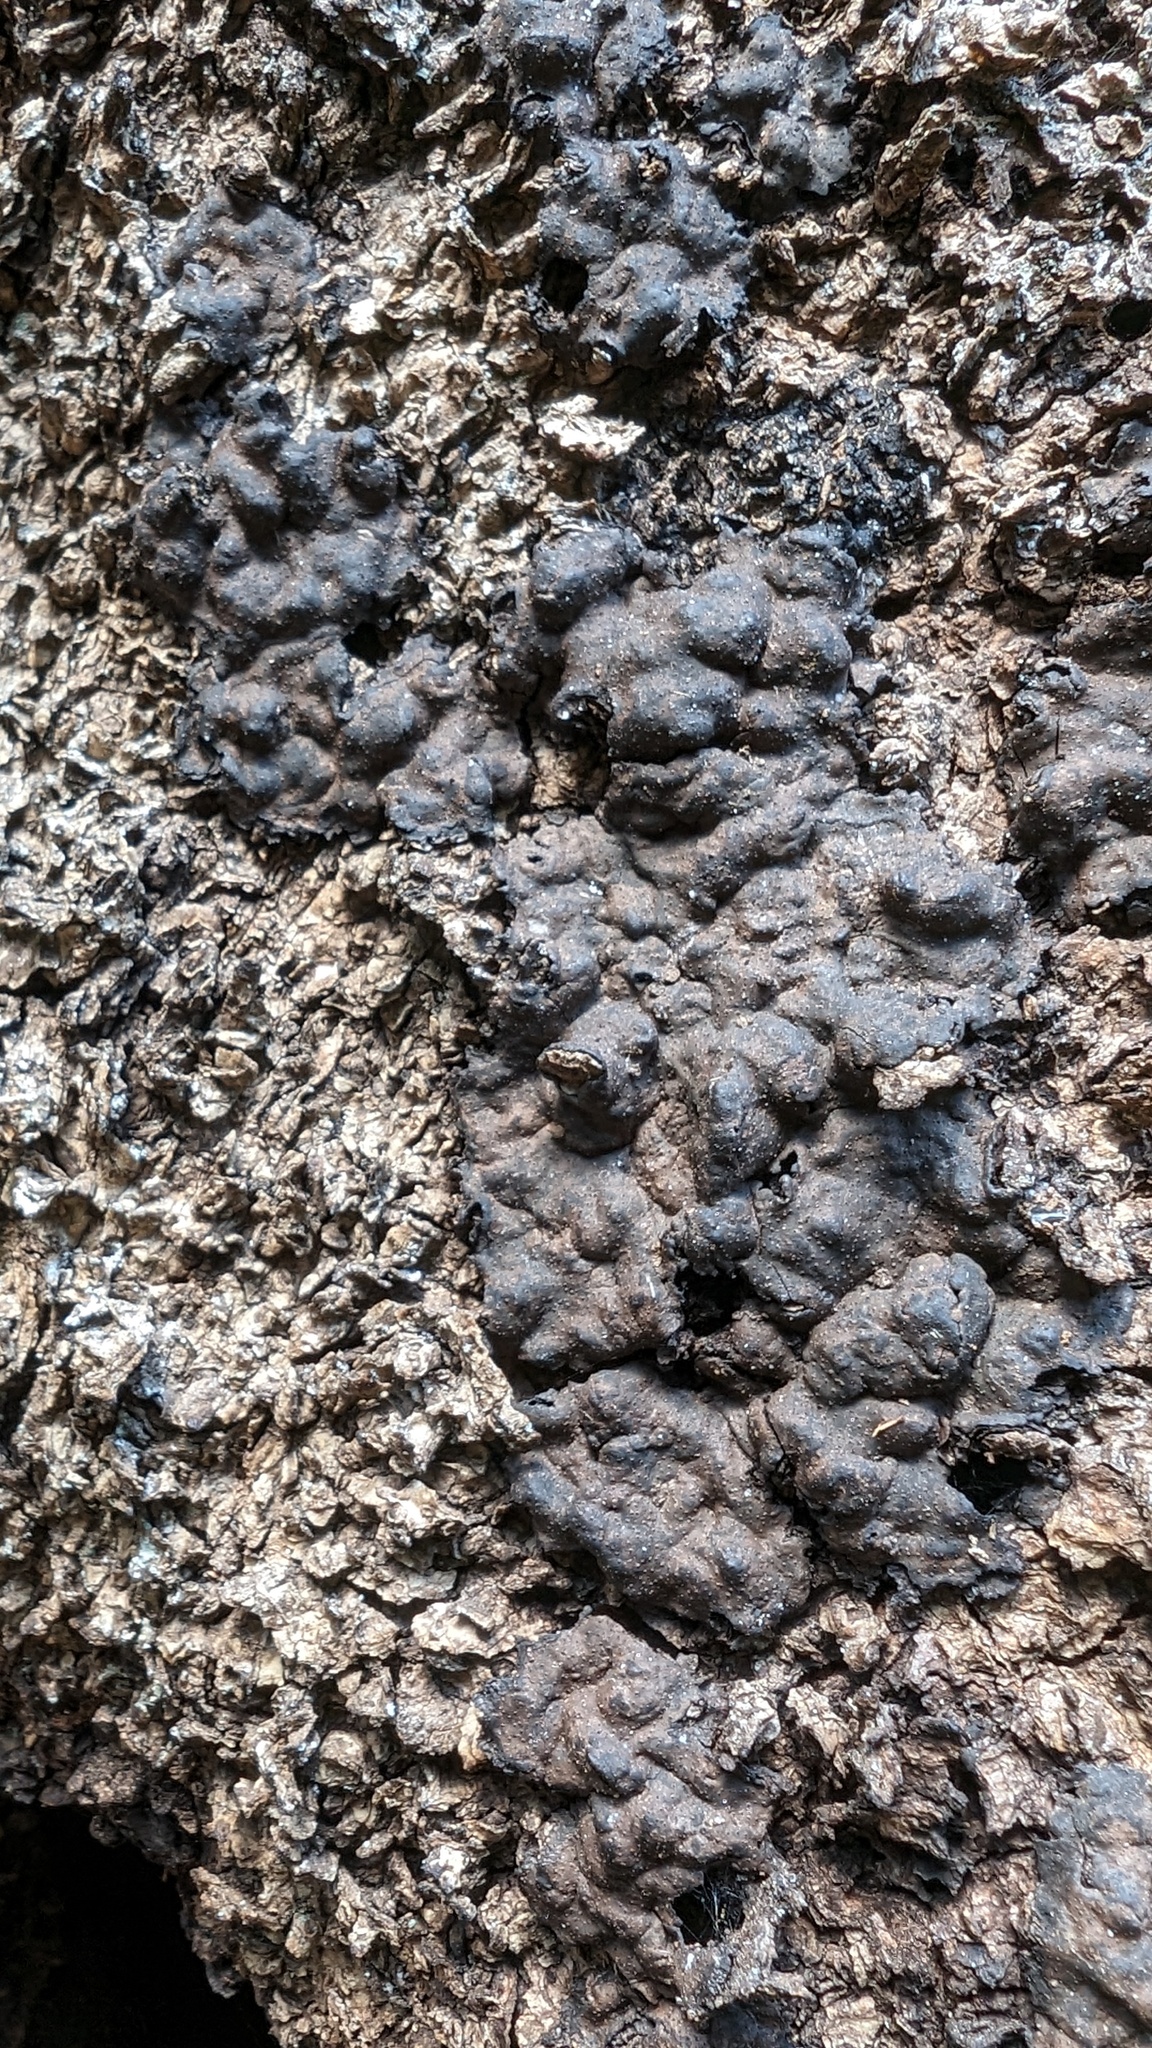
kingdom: Fungi
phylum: Ascomycota
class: Sordariomycetes
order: Xylariales
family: Xylariaceae
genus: Kretzschmaria
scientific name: Kretzschmaria deusta
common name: Brittle cinder
